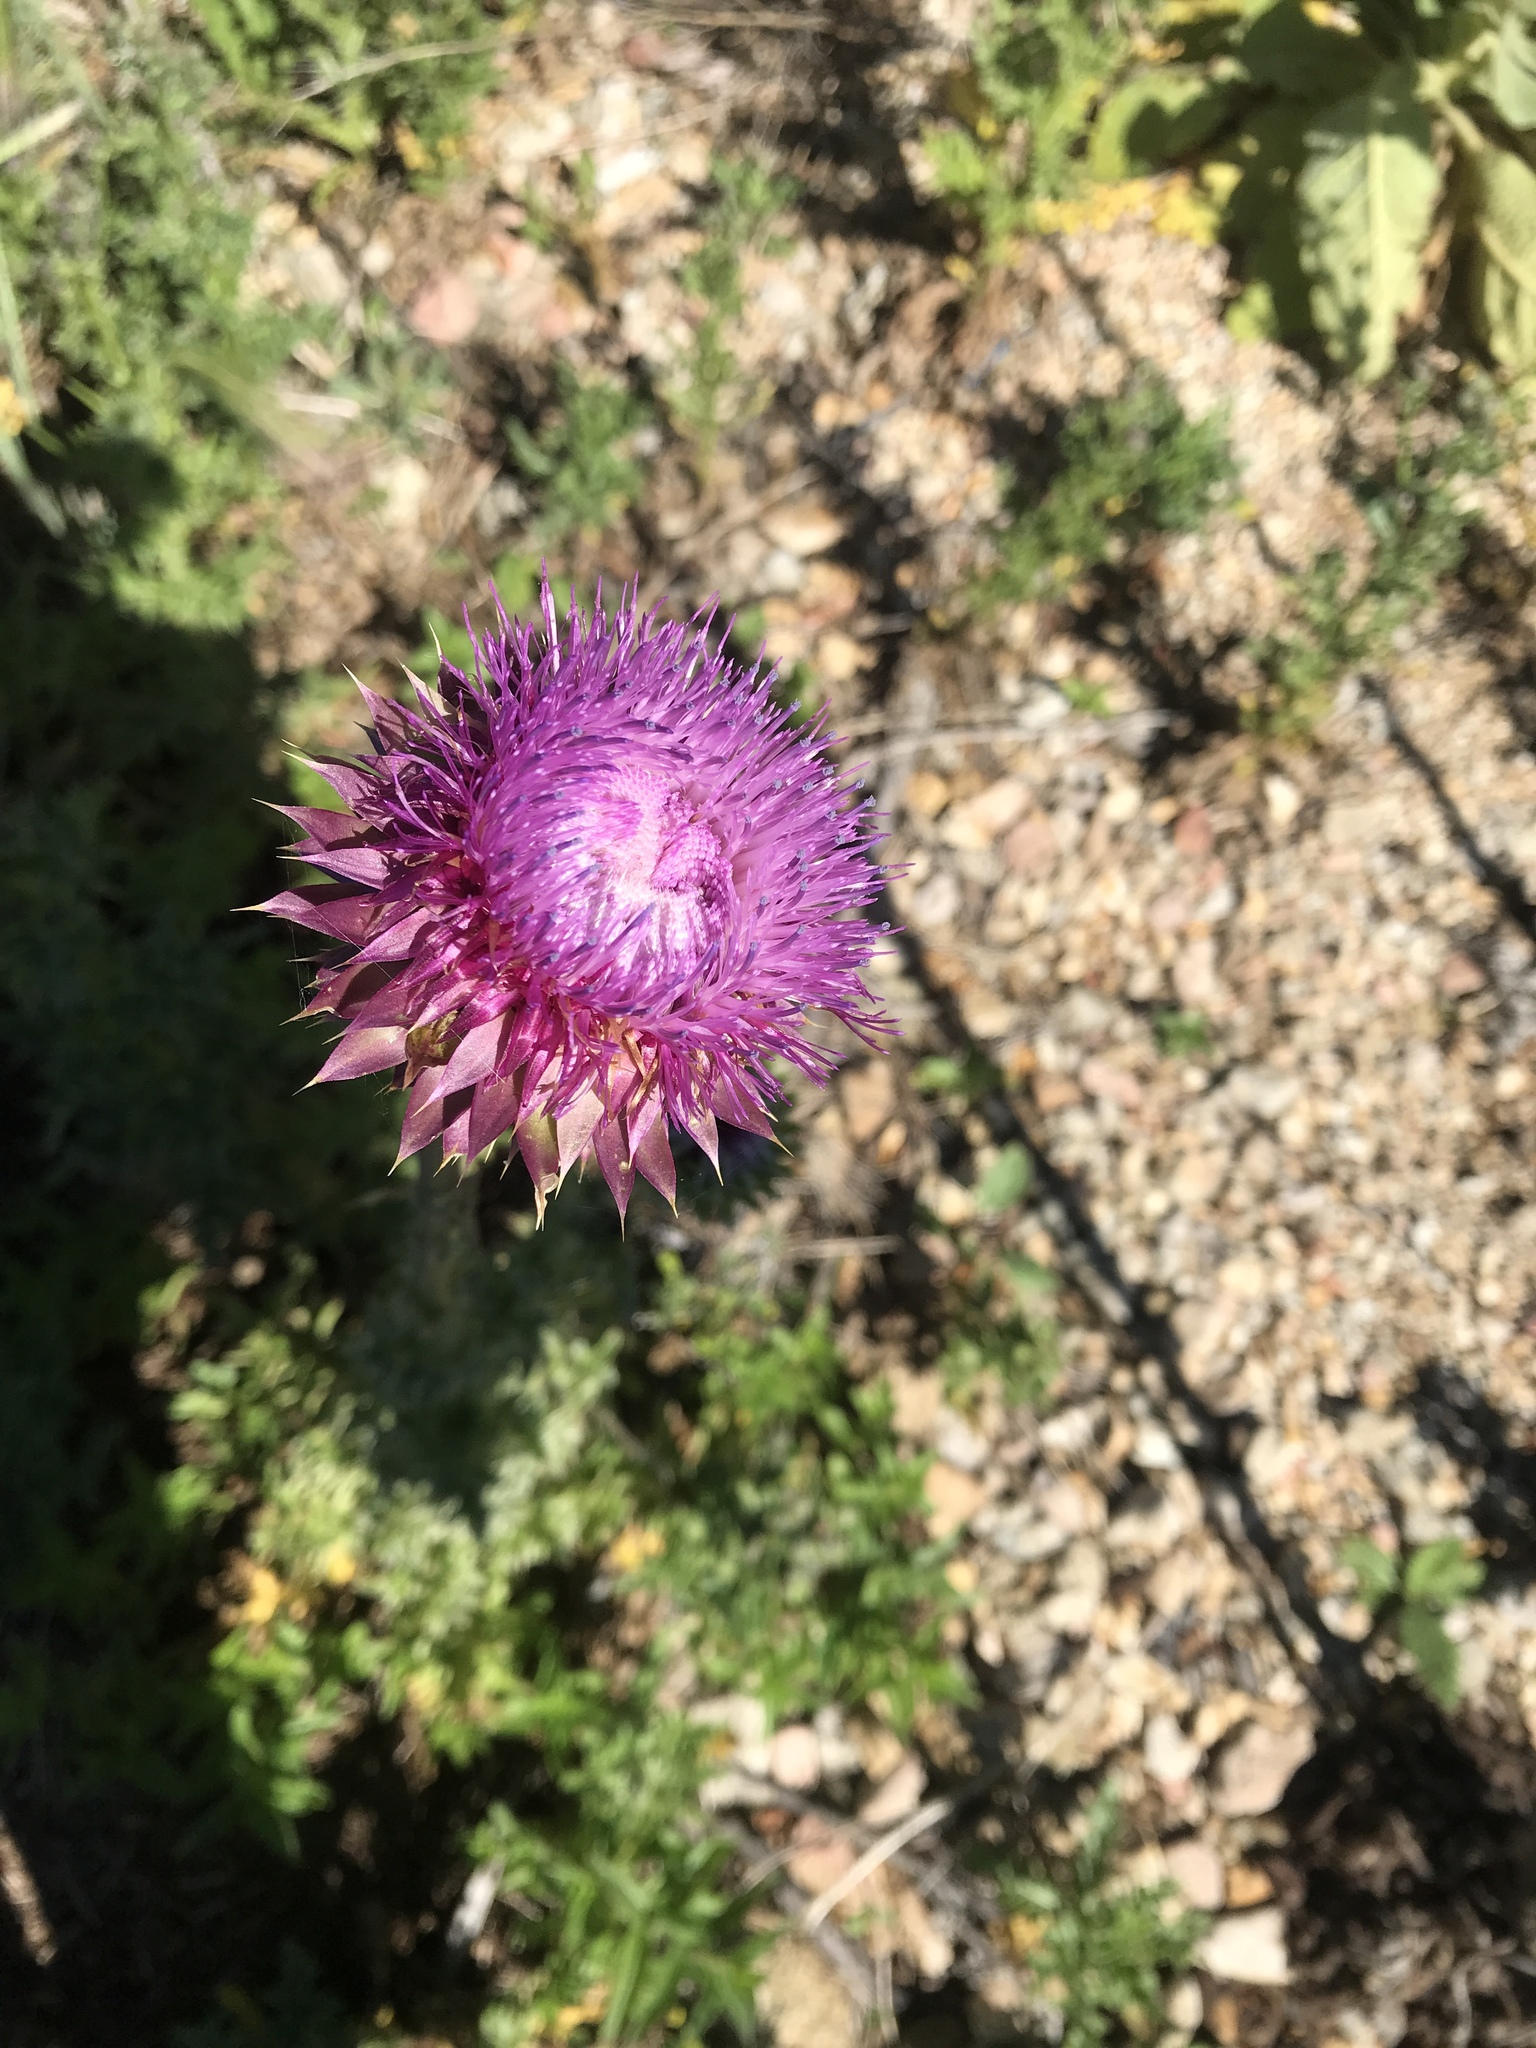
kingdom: Plantae
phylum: Tracheophyta
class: Magnoliopsida
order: Asterales
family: Asteraceae
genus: Carduus
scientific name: Carduus nutans
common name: Musk thistle
